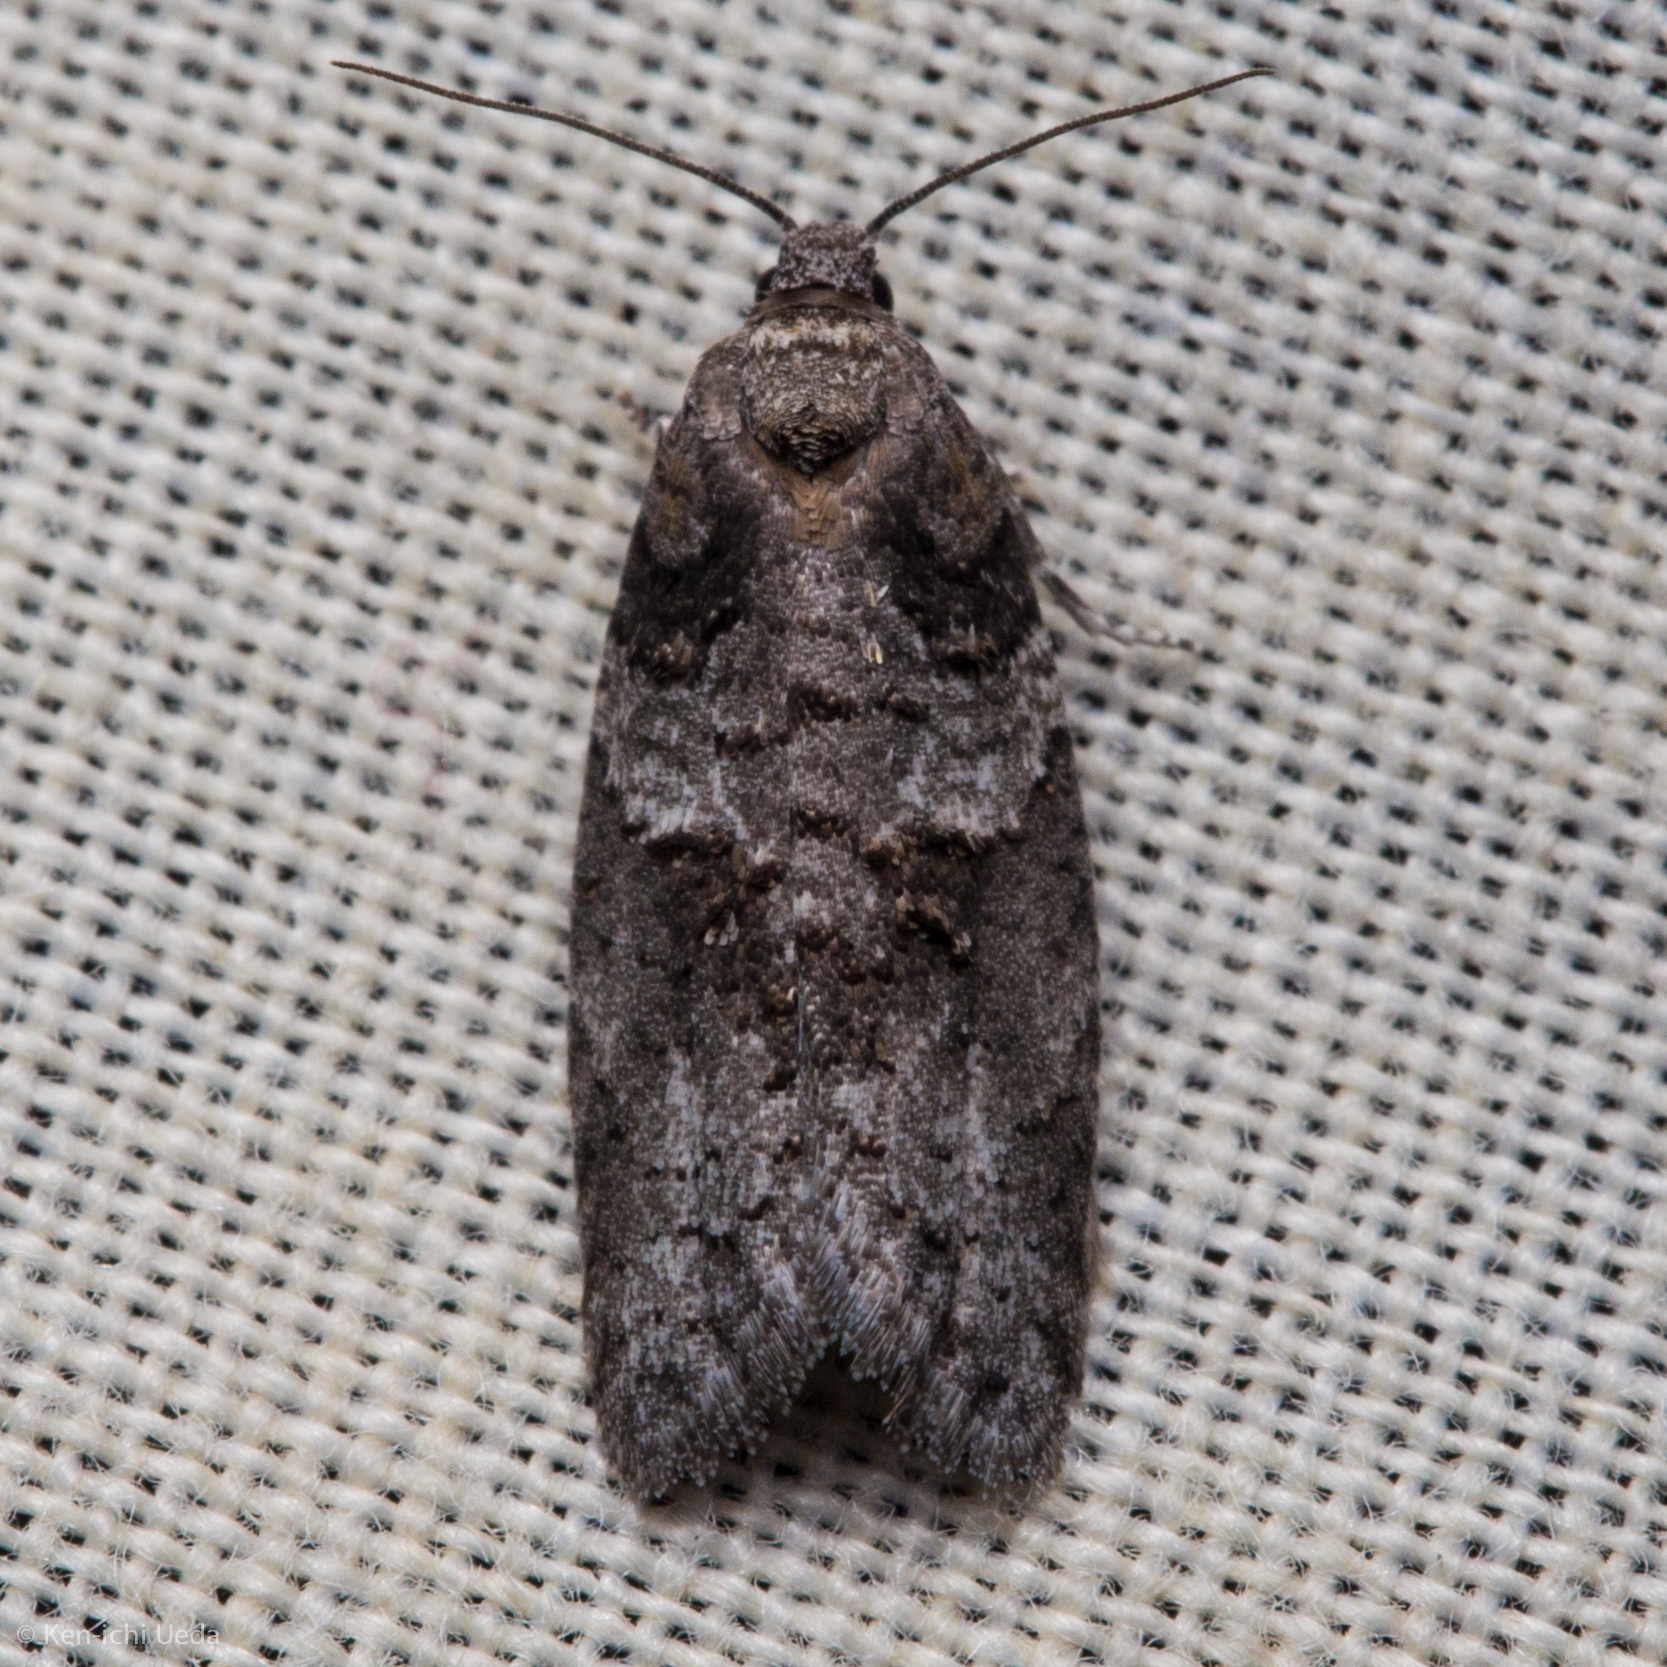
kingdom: Animalia
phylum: Arthropoda
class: Insecta
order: Lepidoptera
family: Tortricidae
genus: Decodes
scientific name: Decodes basiplagana
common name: Gray-marked tortricid
